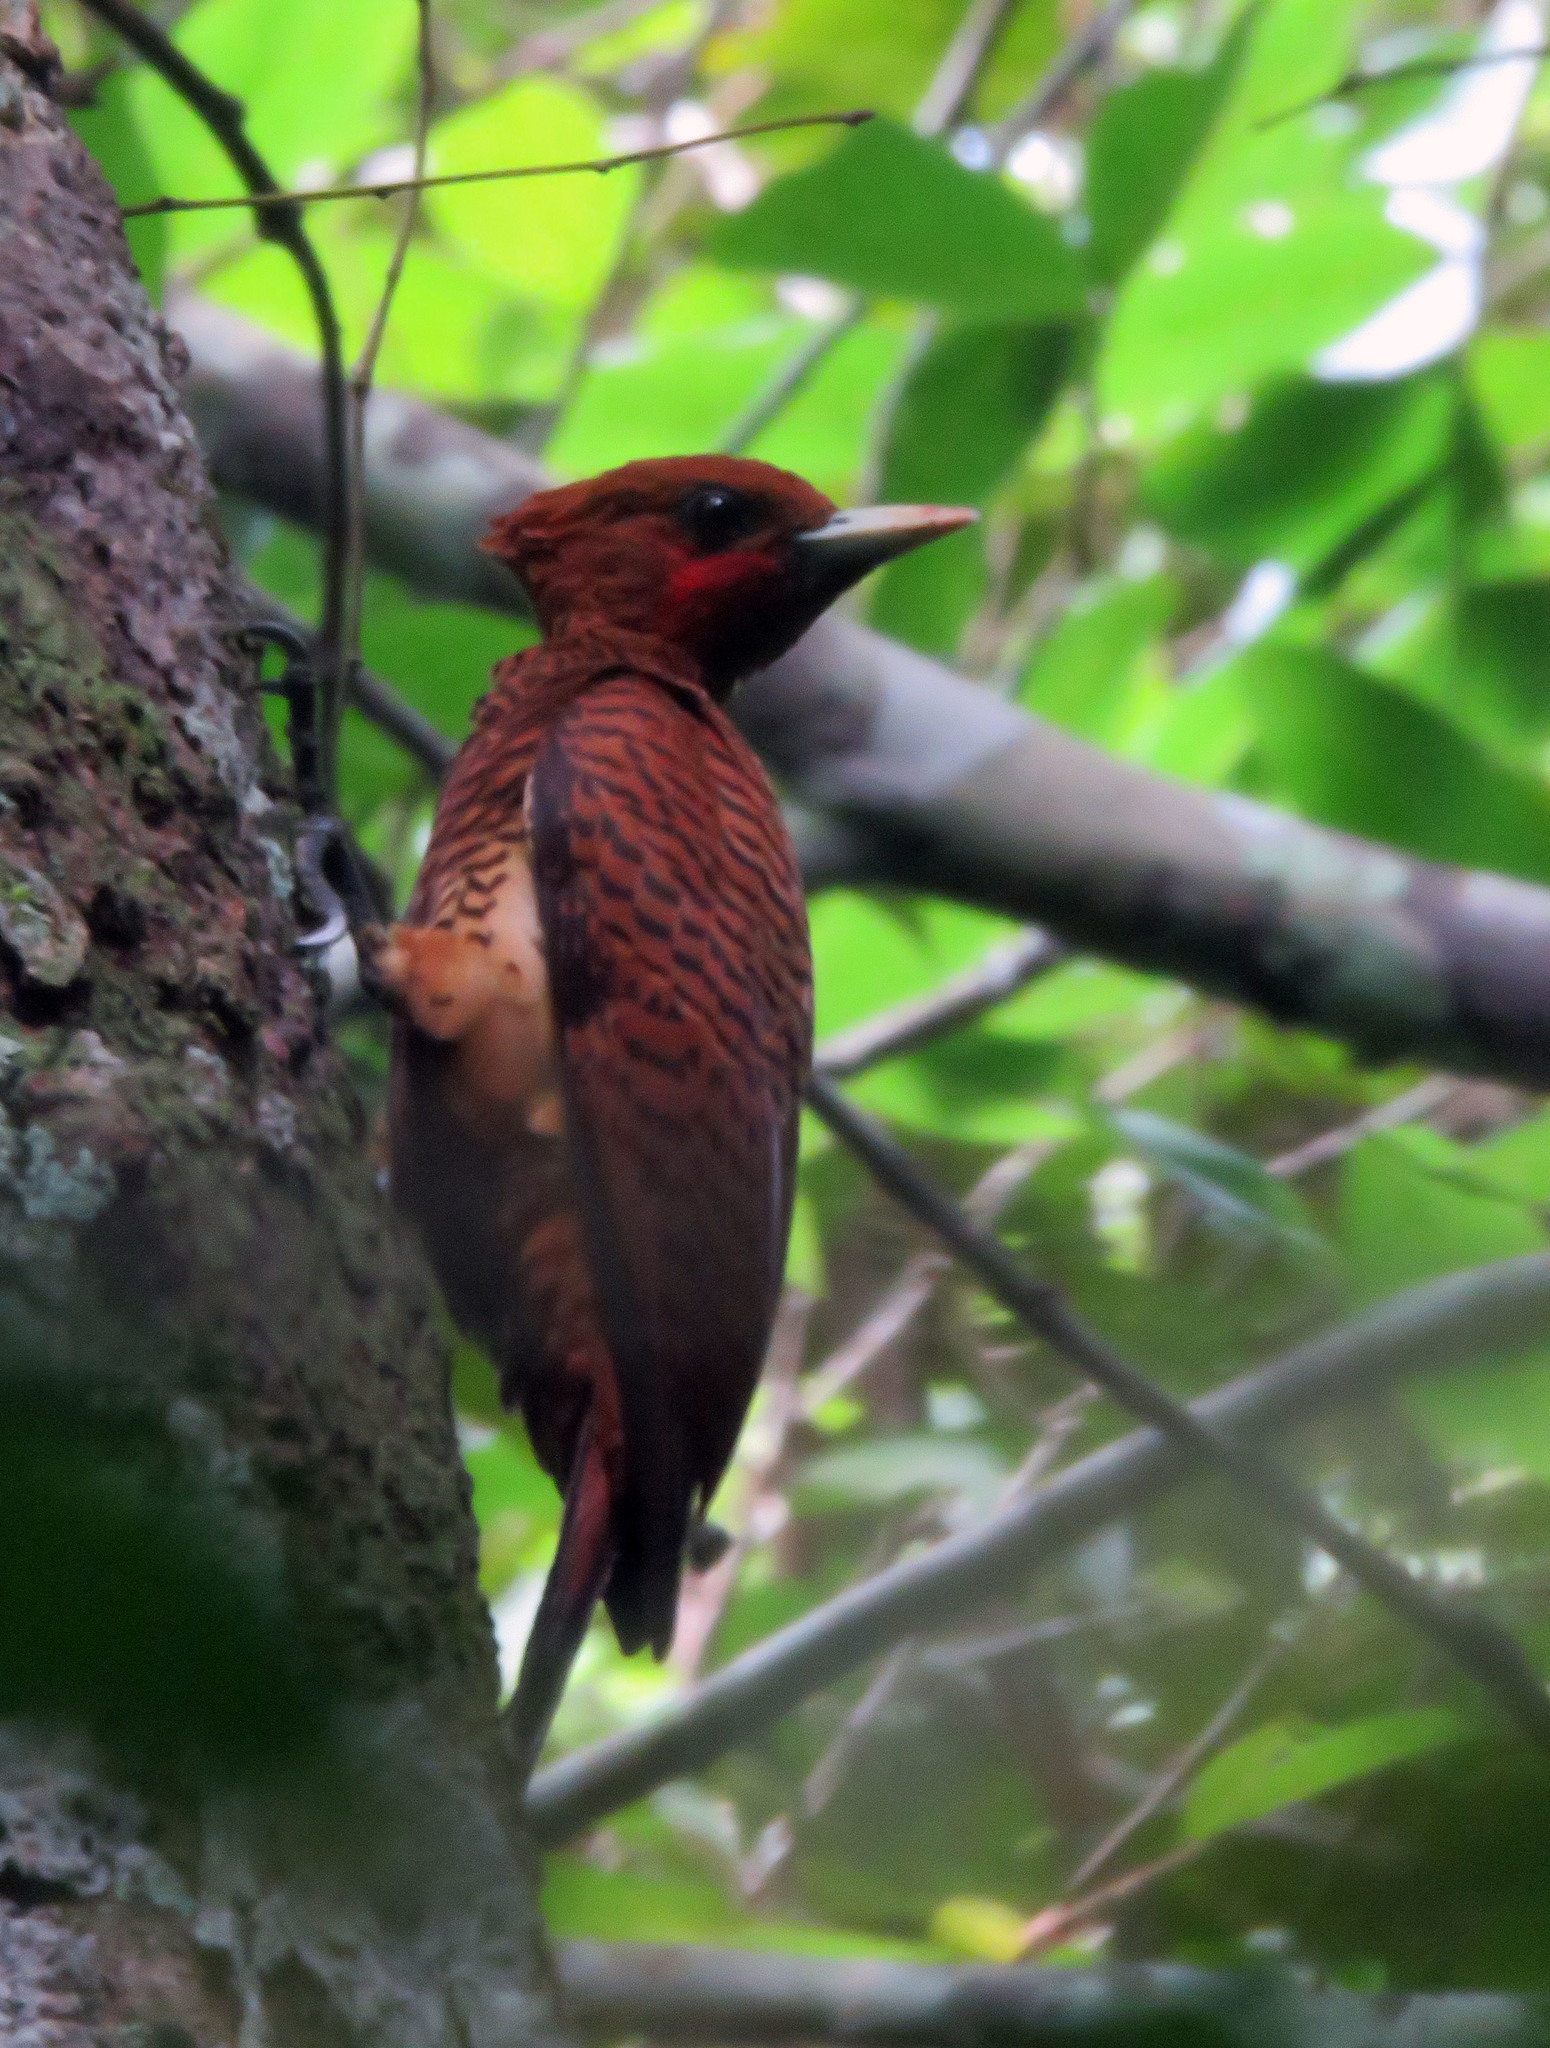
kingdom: Animalia
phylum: Chordata
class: Aves
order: Piciformes
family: Picidae
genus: Celeus
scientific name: Celeus undatus
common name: Waved woodpecker
